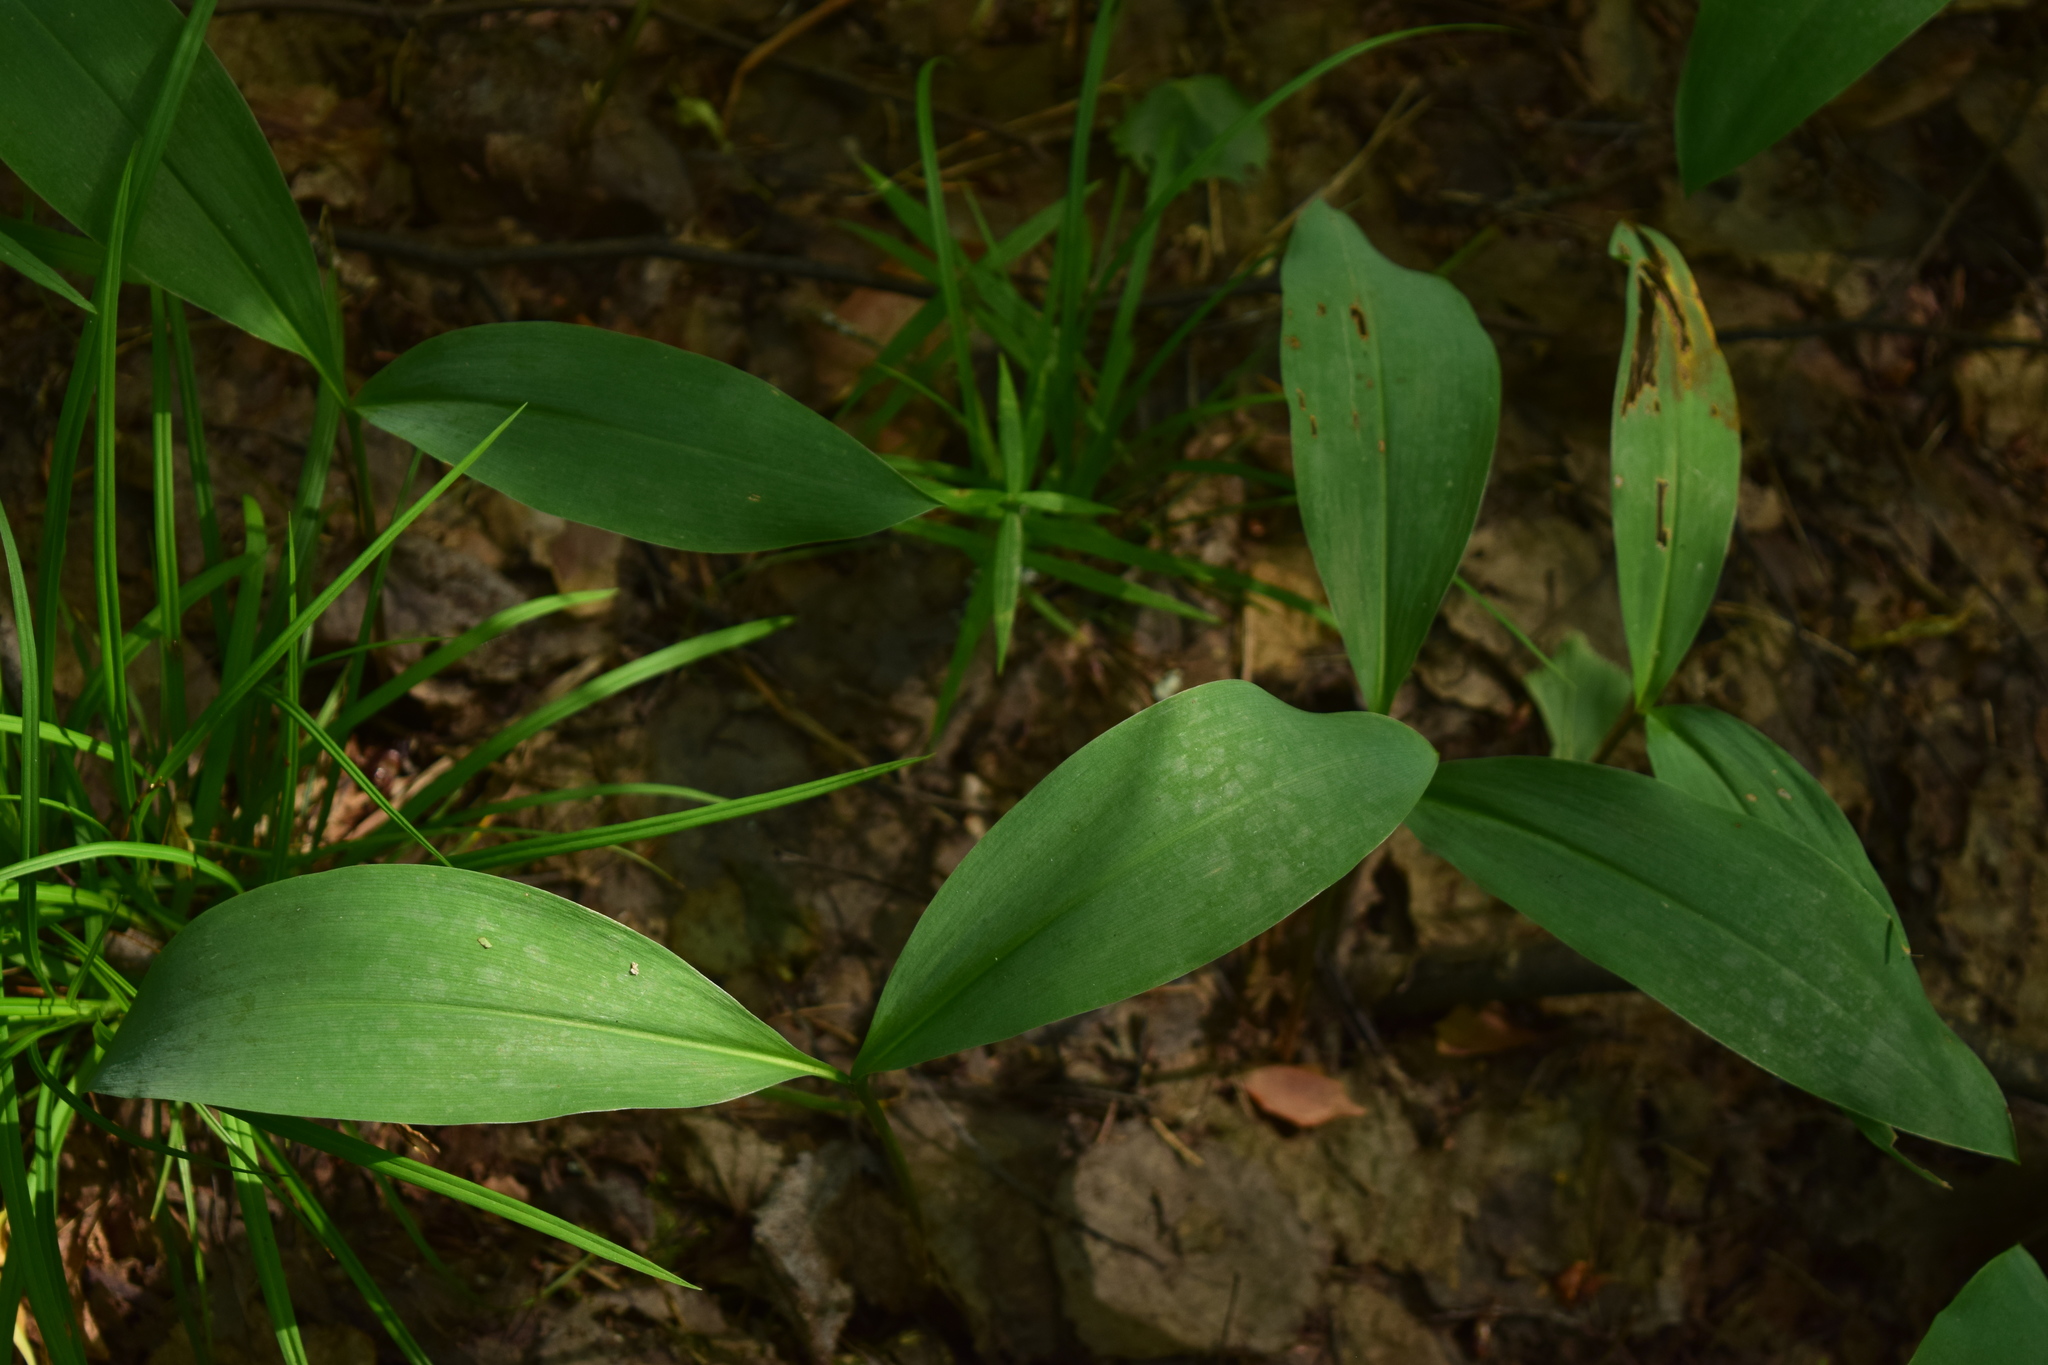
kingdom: Plantae
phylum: Tracheophyta
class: Liliopsida
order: Asparagales
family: Asparagaceae
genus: Convallaria
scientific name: Convallaria majalis
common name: Lily-of-the-valley
